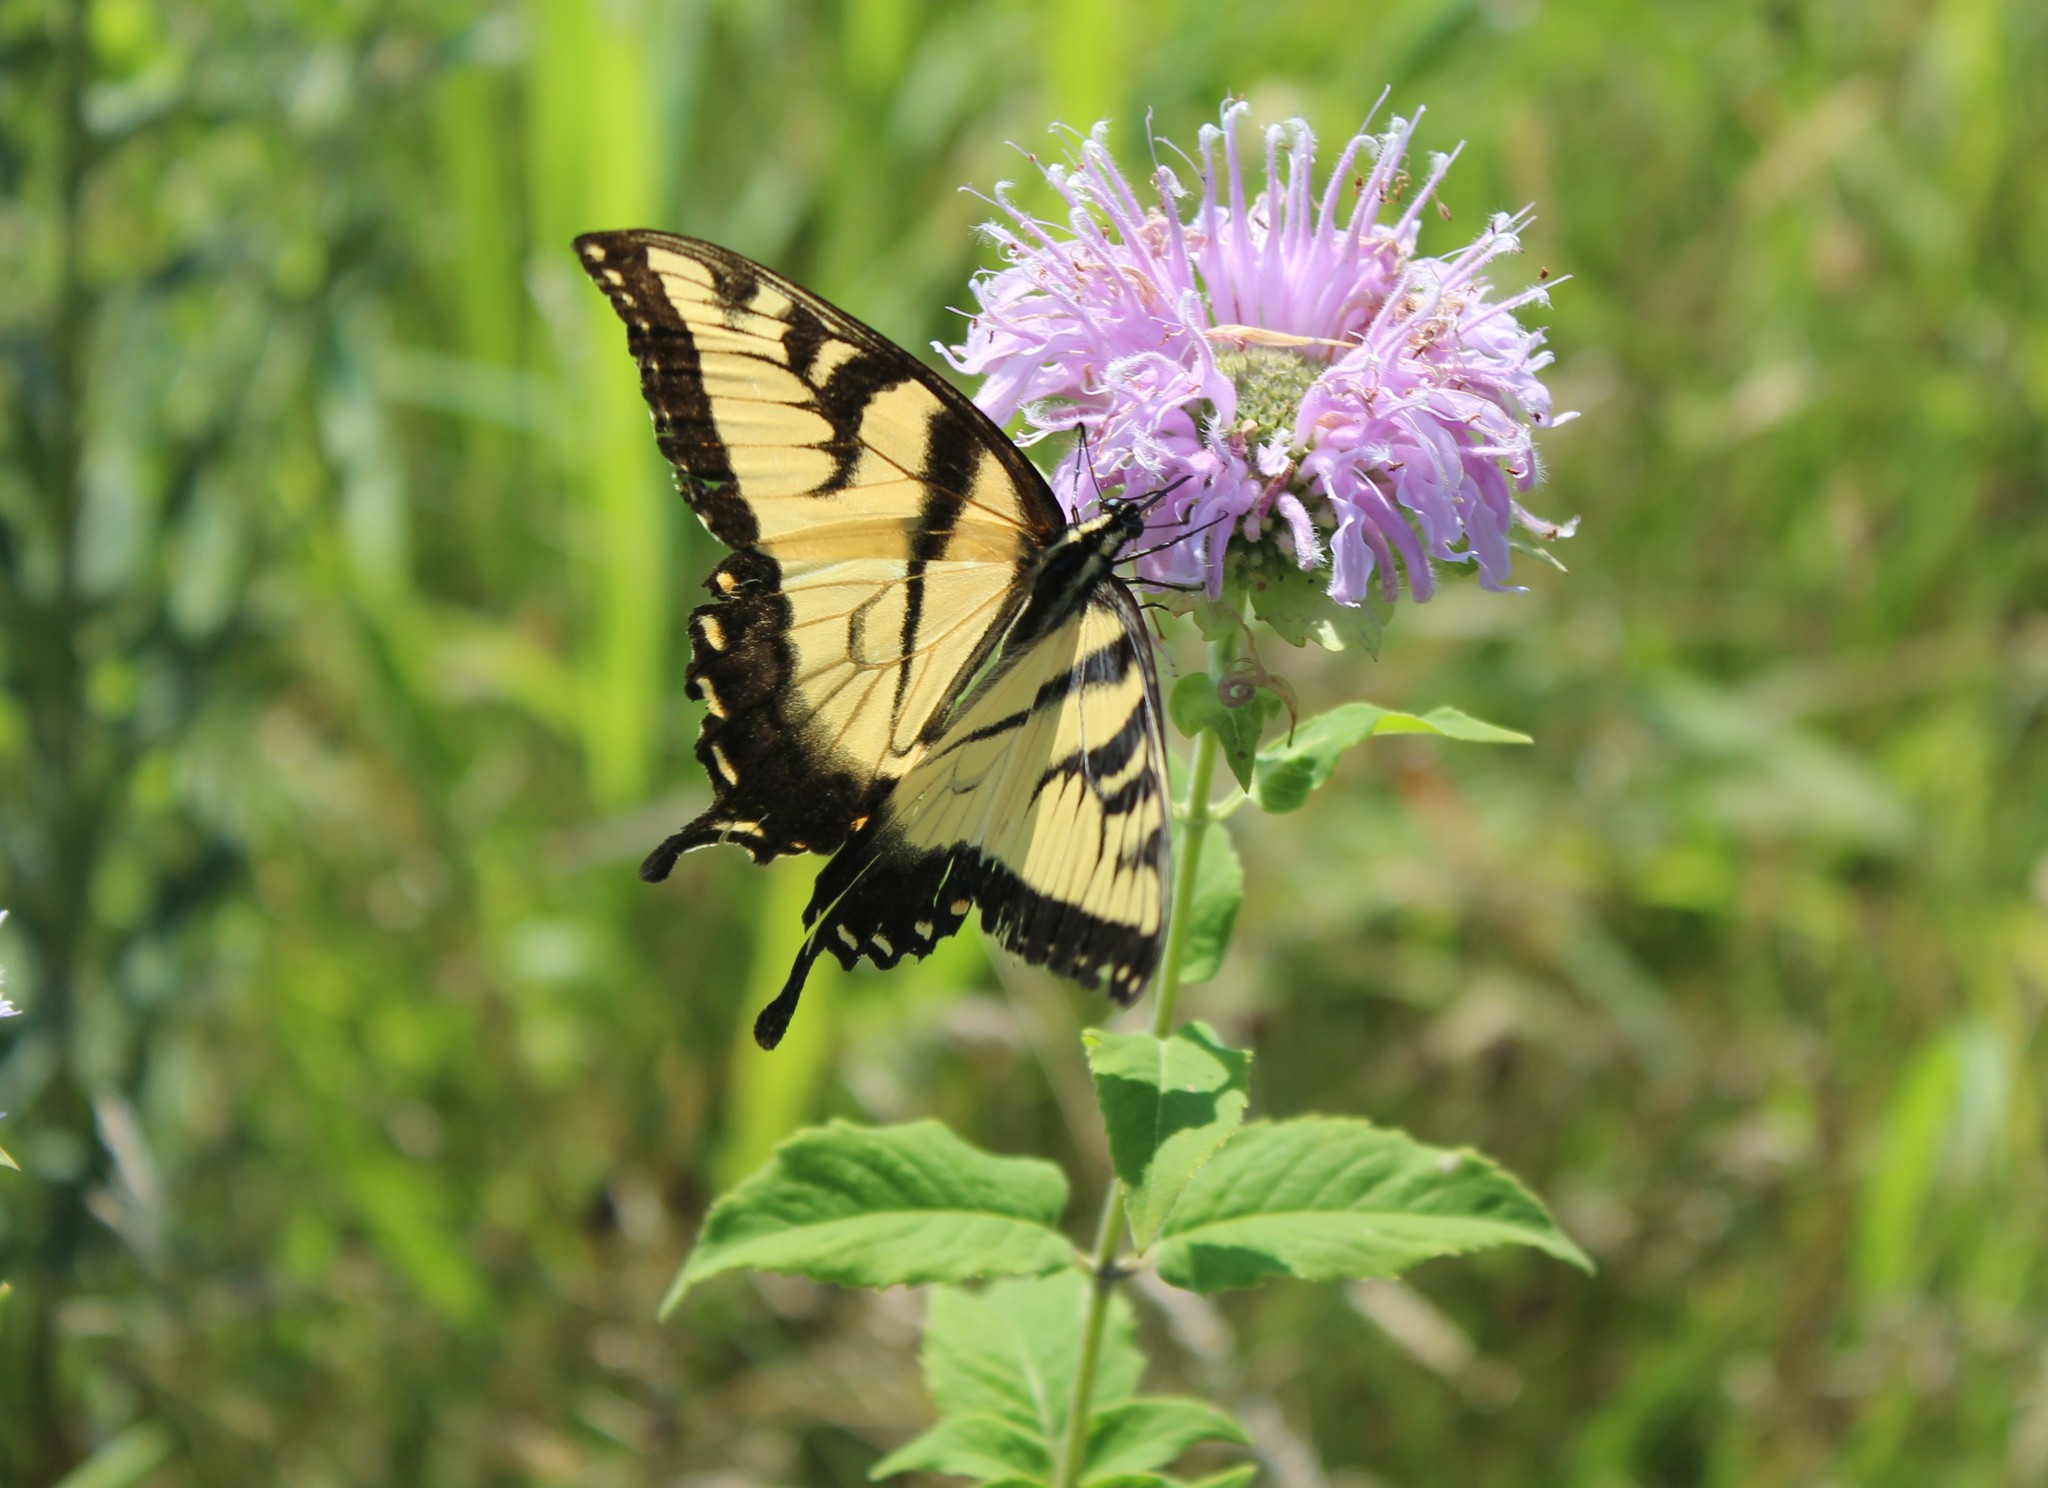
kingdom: Animalia
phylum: Arthropoda
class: Insecta
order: Lepidoptera
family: Papilionidae
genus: Papilio
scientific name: Papilio glaucus
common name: Tiger swallowtail
